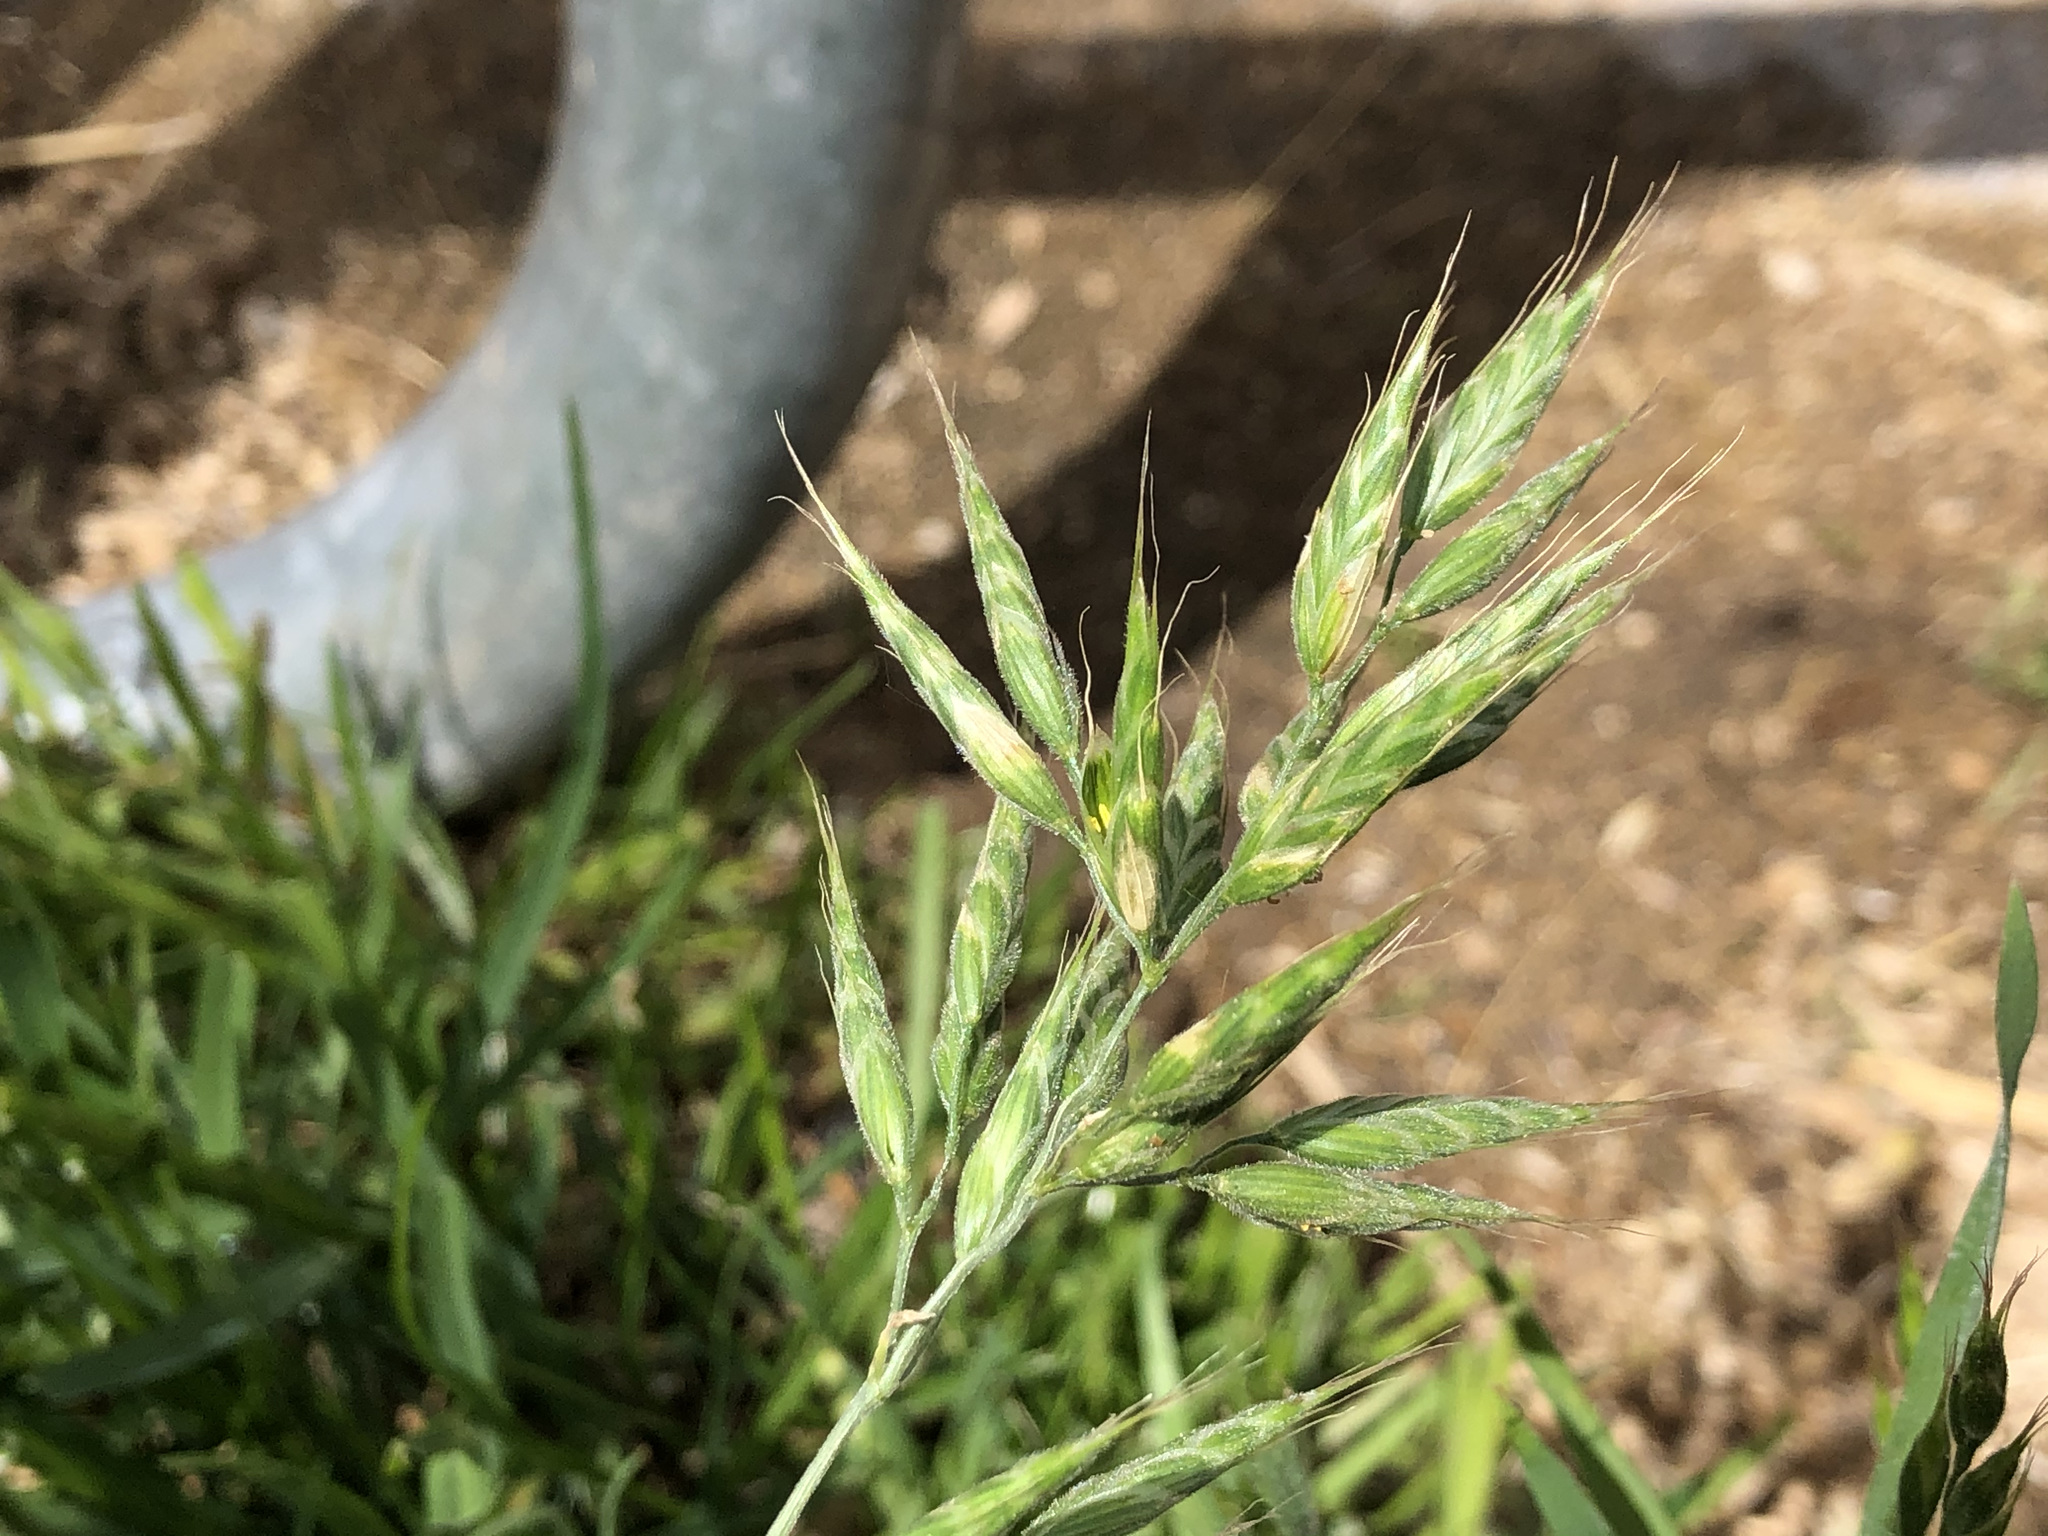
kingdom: Plantae
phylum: Tracheophyta
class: Liliopsida
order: Poales
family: Poaceae
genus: Bromus
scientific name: Bromus hordeaceus
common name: Soft brome
